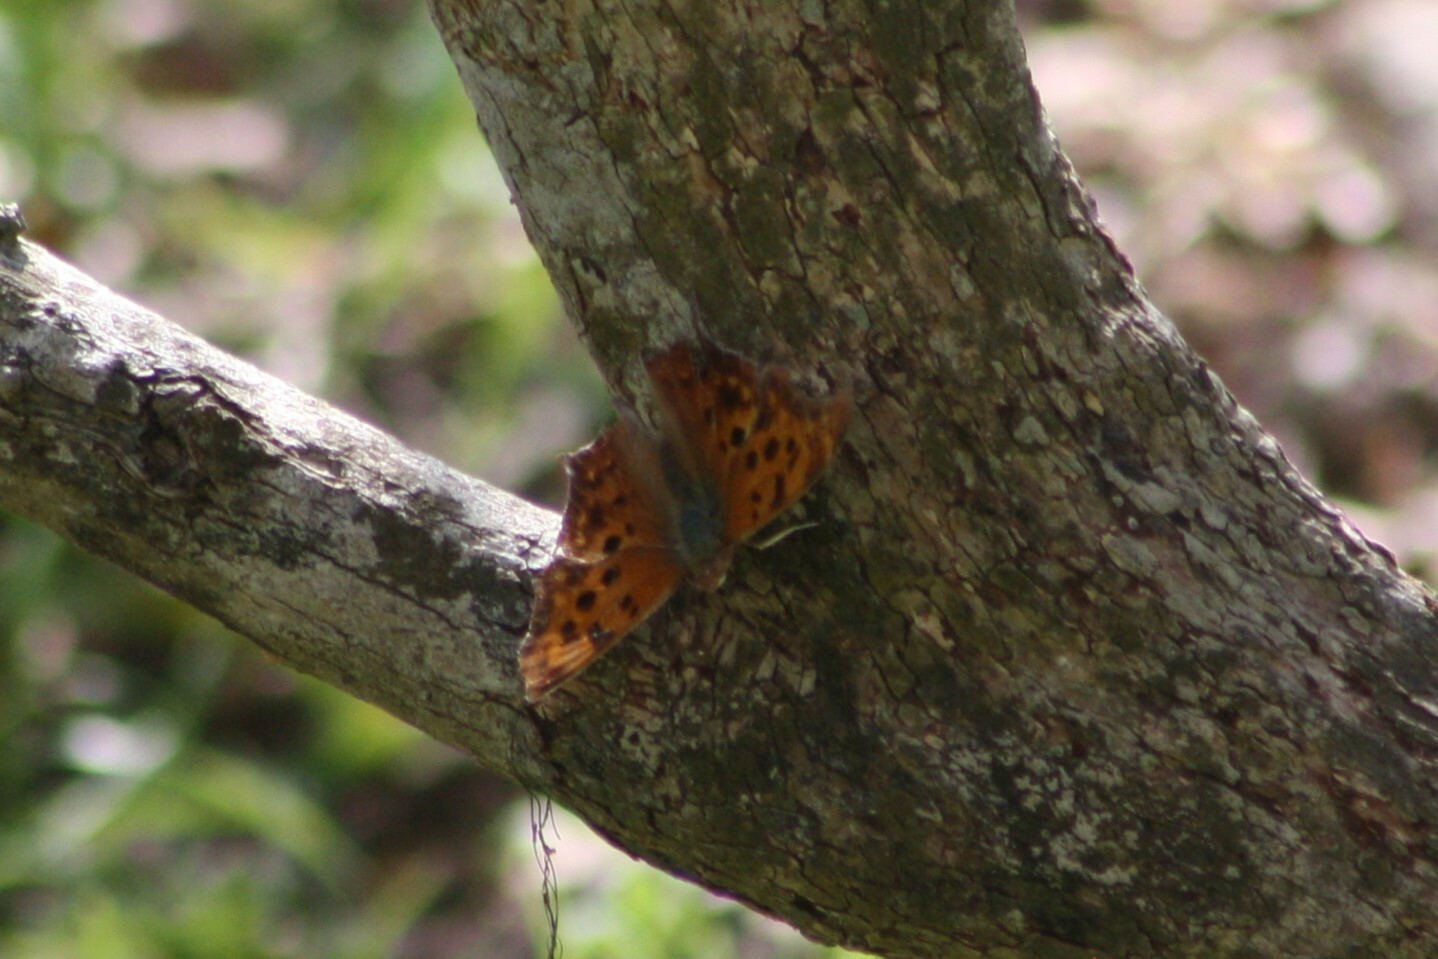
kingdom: Animalia
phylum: Arthropoda
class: Insecta
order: Lepidoptera
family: Nymphalidae
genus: Polygonia
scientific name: Polygonia interrogationis
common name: Question mark
